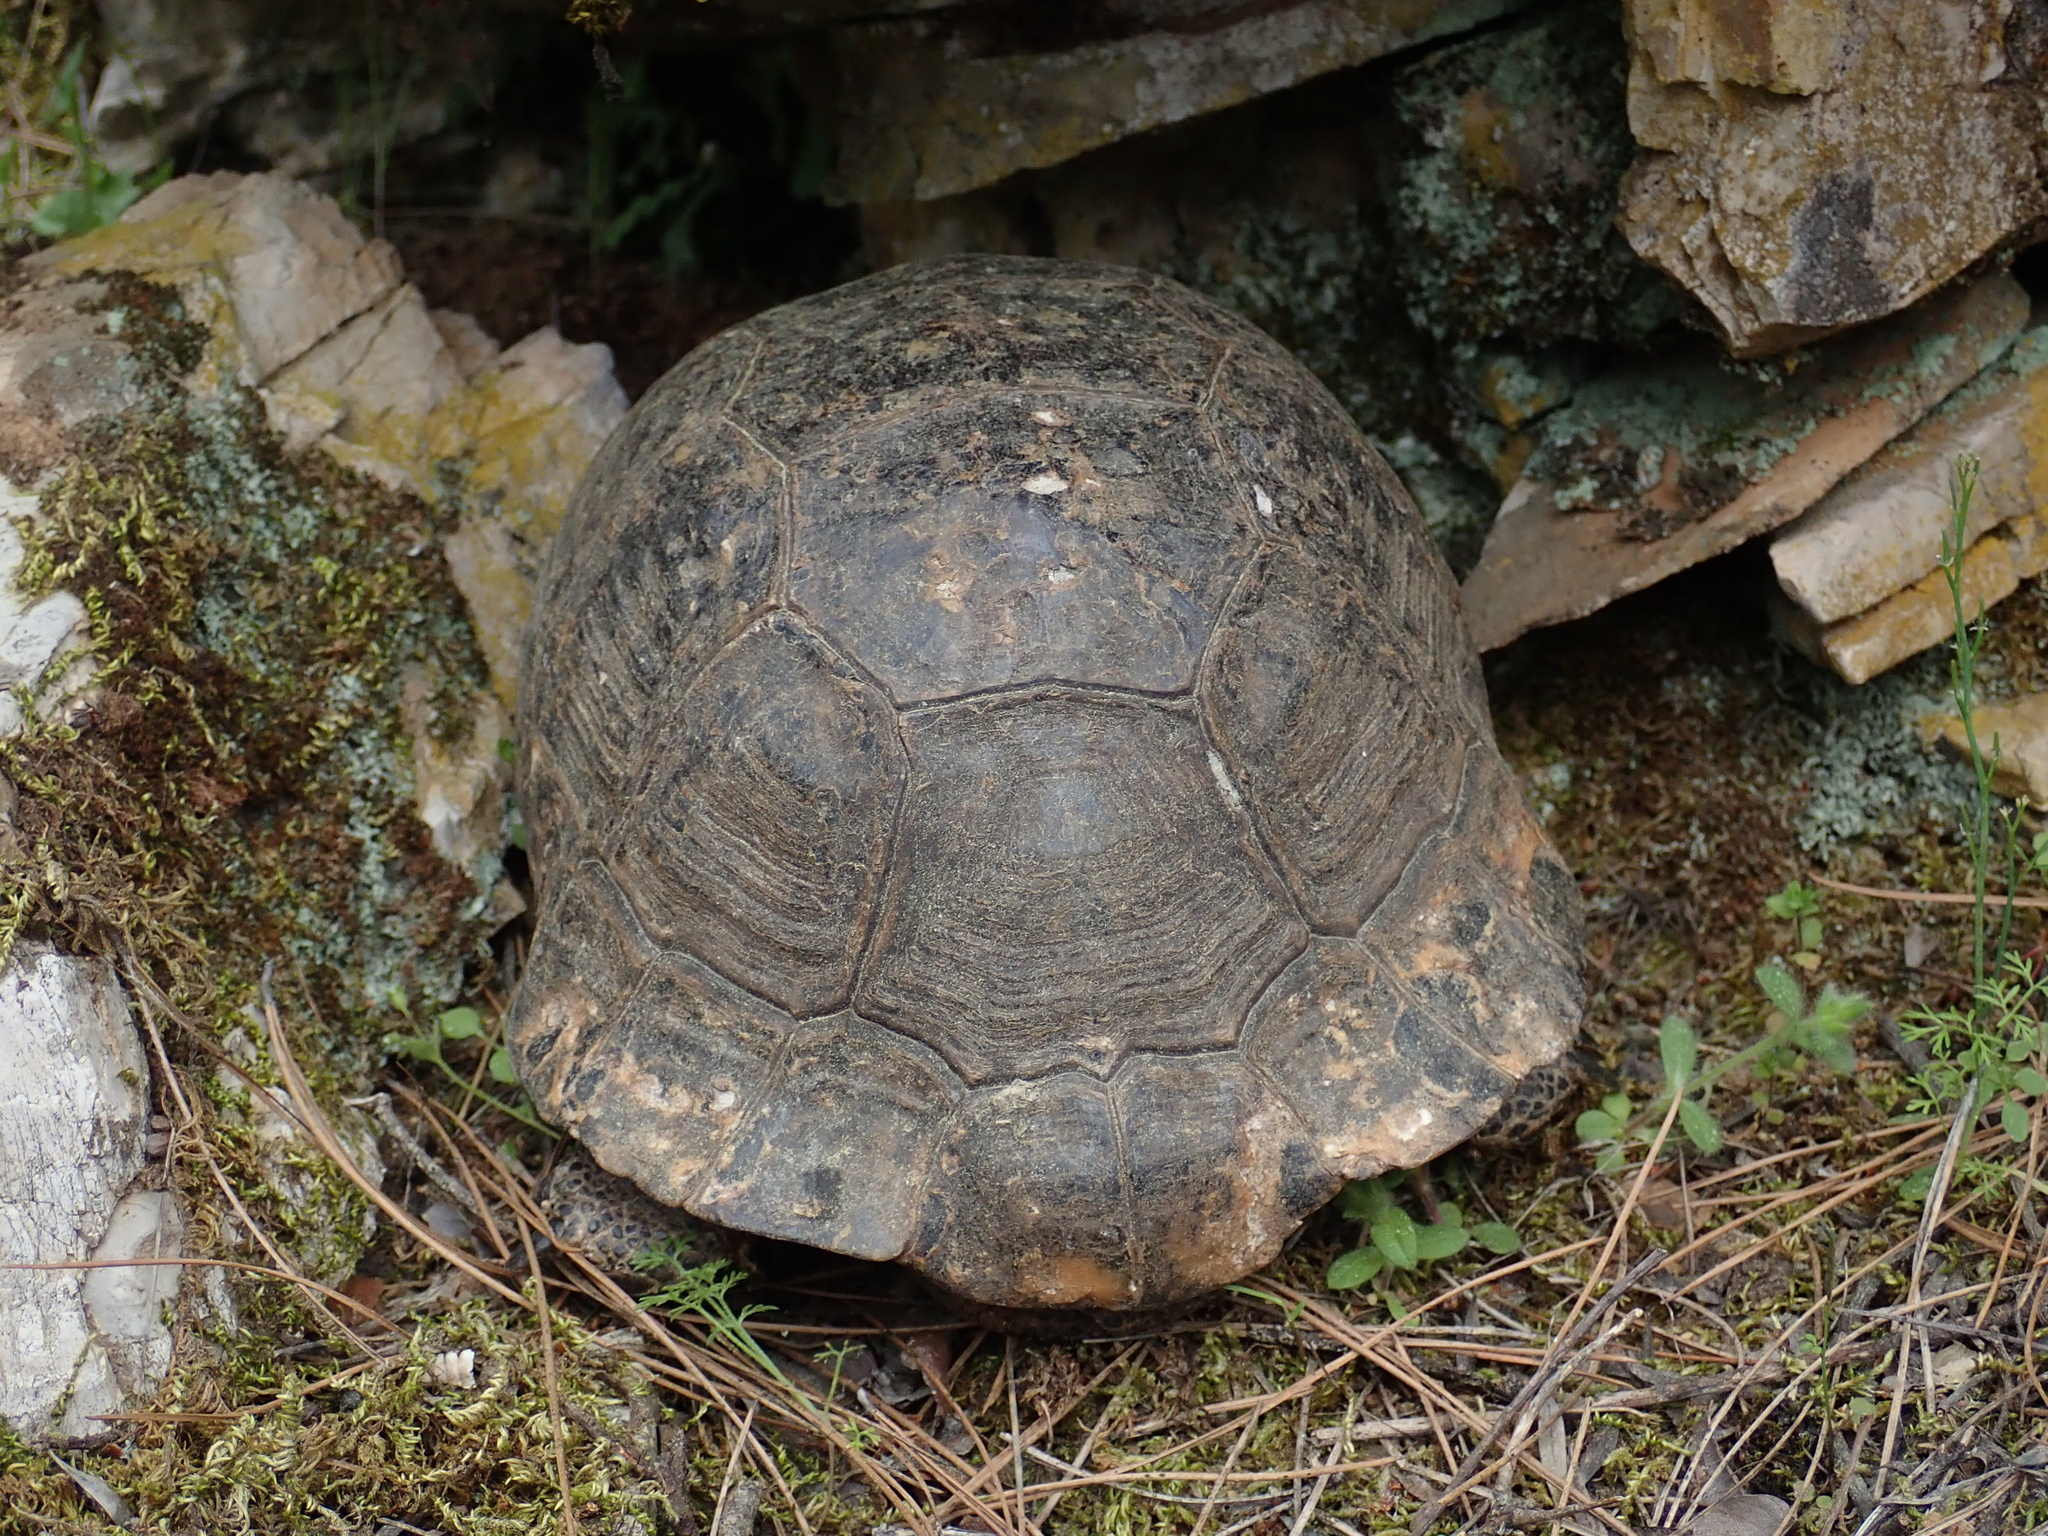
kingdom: Animalia
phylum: Chordata
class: Testudines
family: Testudinidae
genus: Testudo
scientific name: Testudo graeca
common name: Common tortoise
